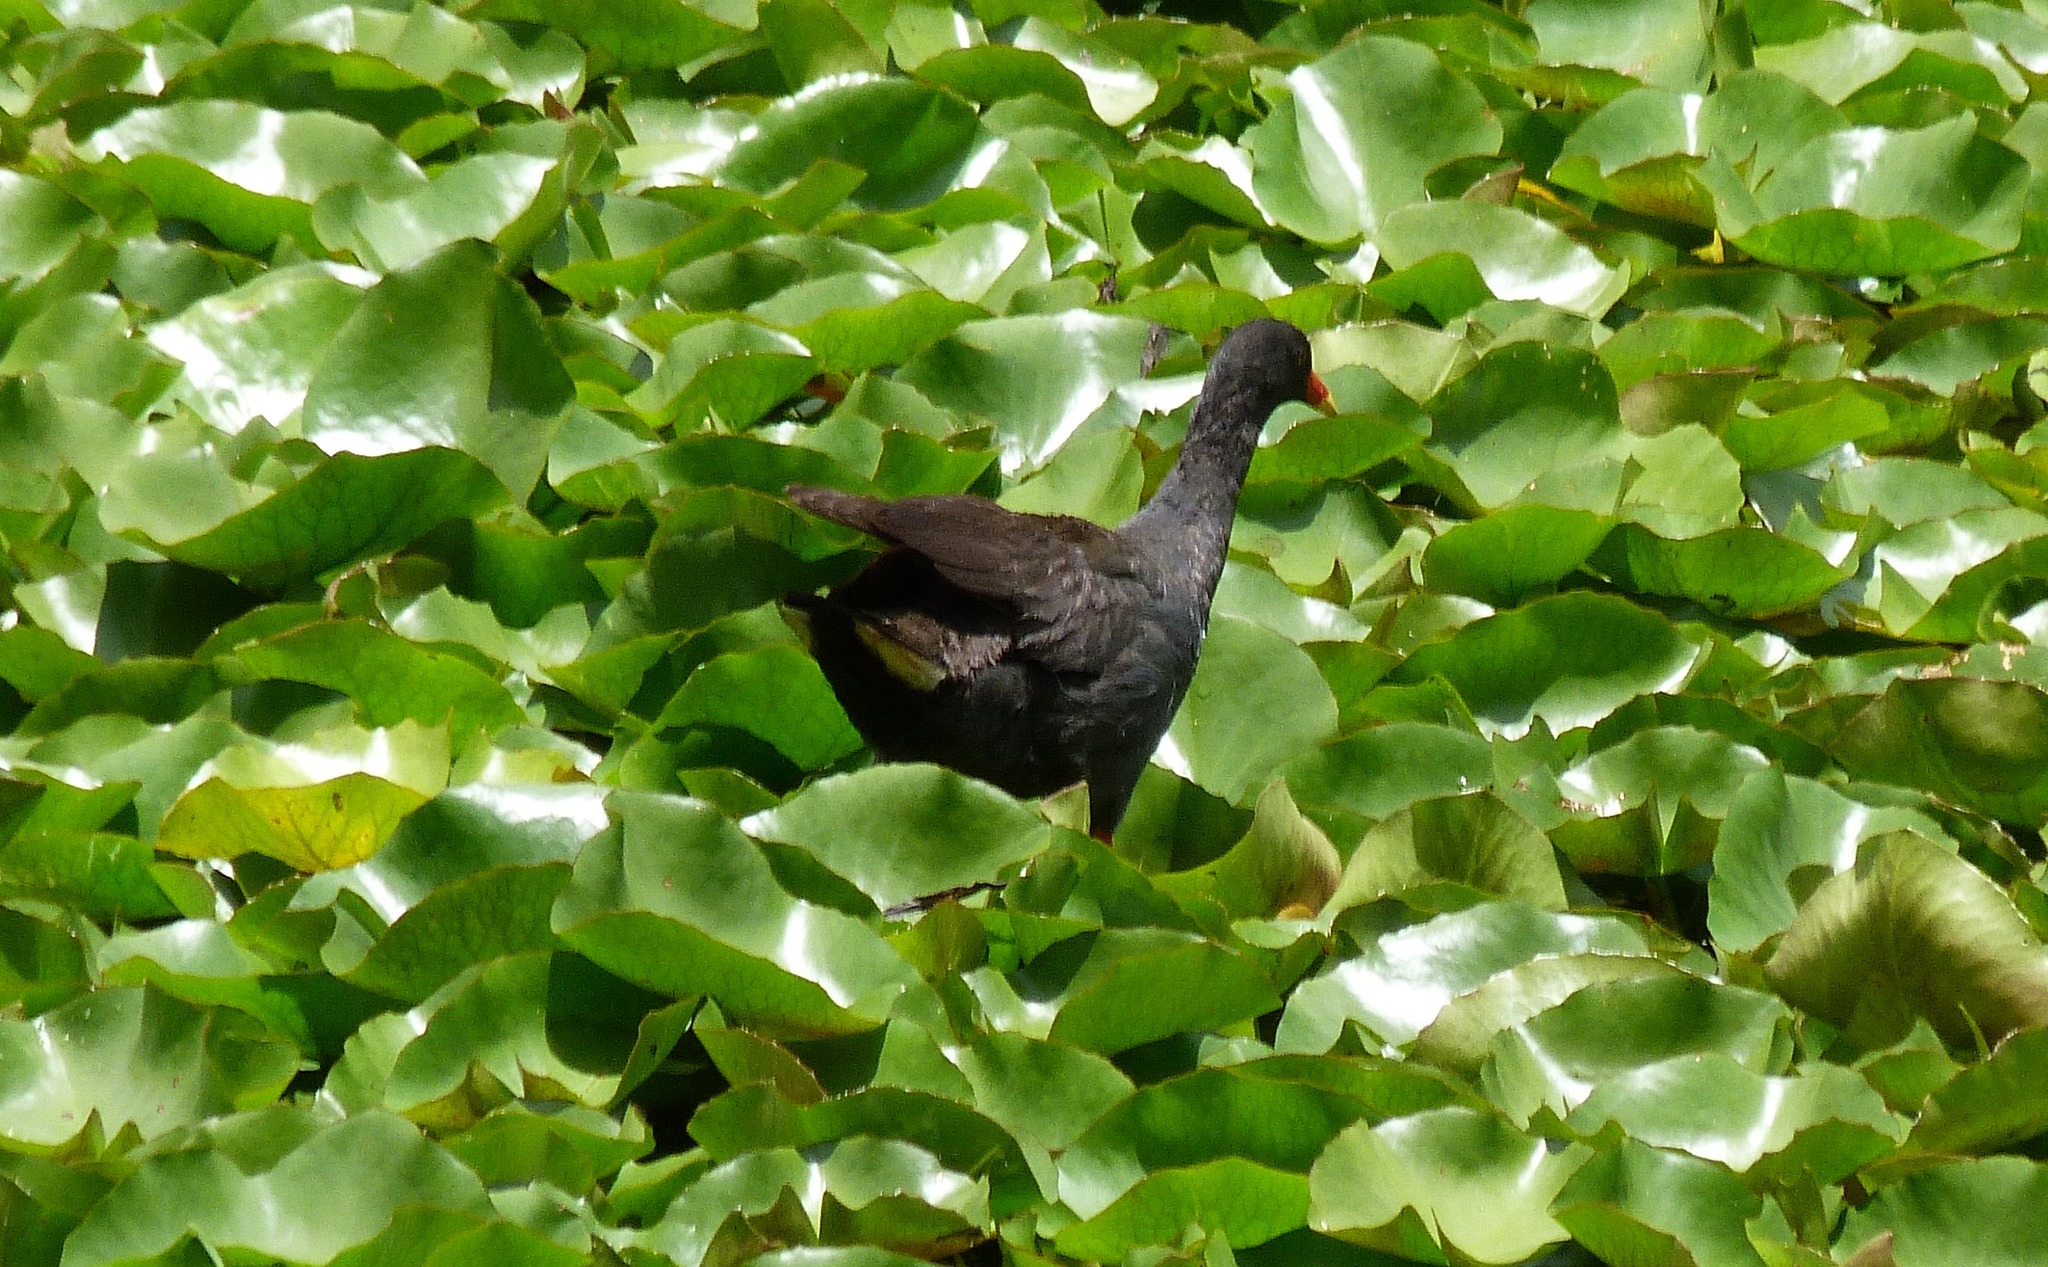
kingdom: Animalia
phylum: Chordata
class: Aves
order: Gruiformes
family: Rallidae
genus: Gallinula
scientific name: Gallinula tenebrosa
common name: Dusky moorhen
